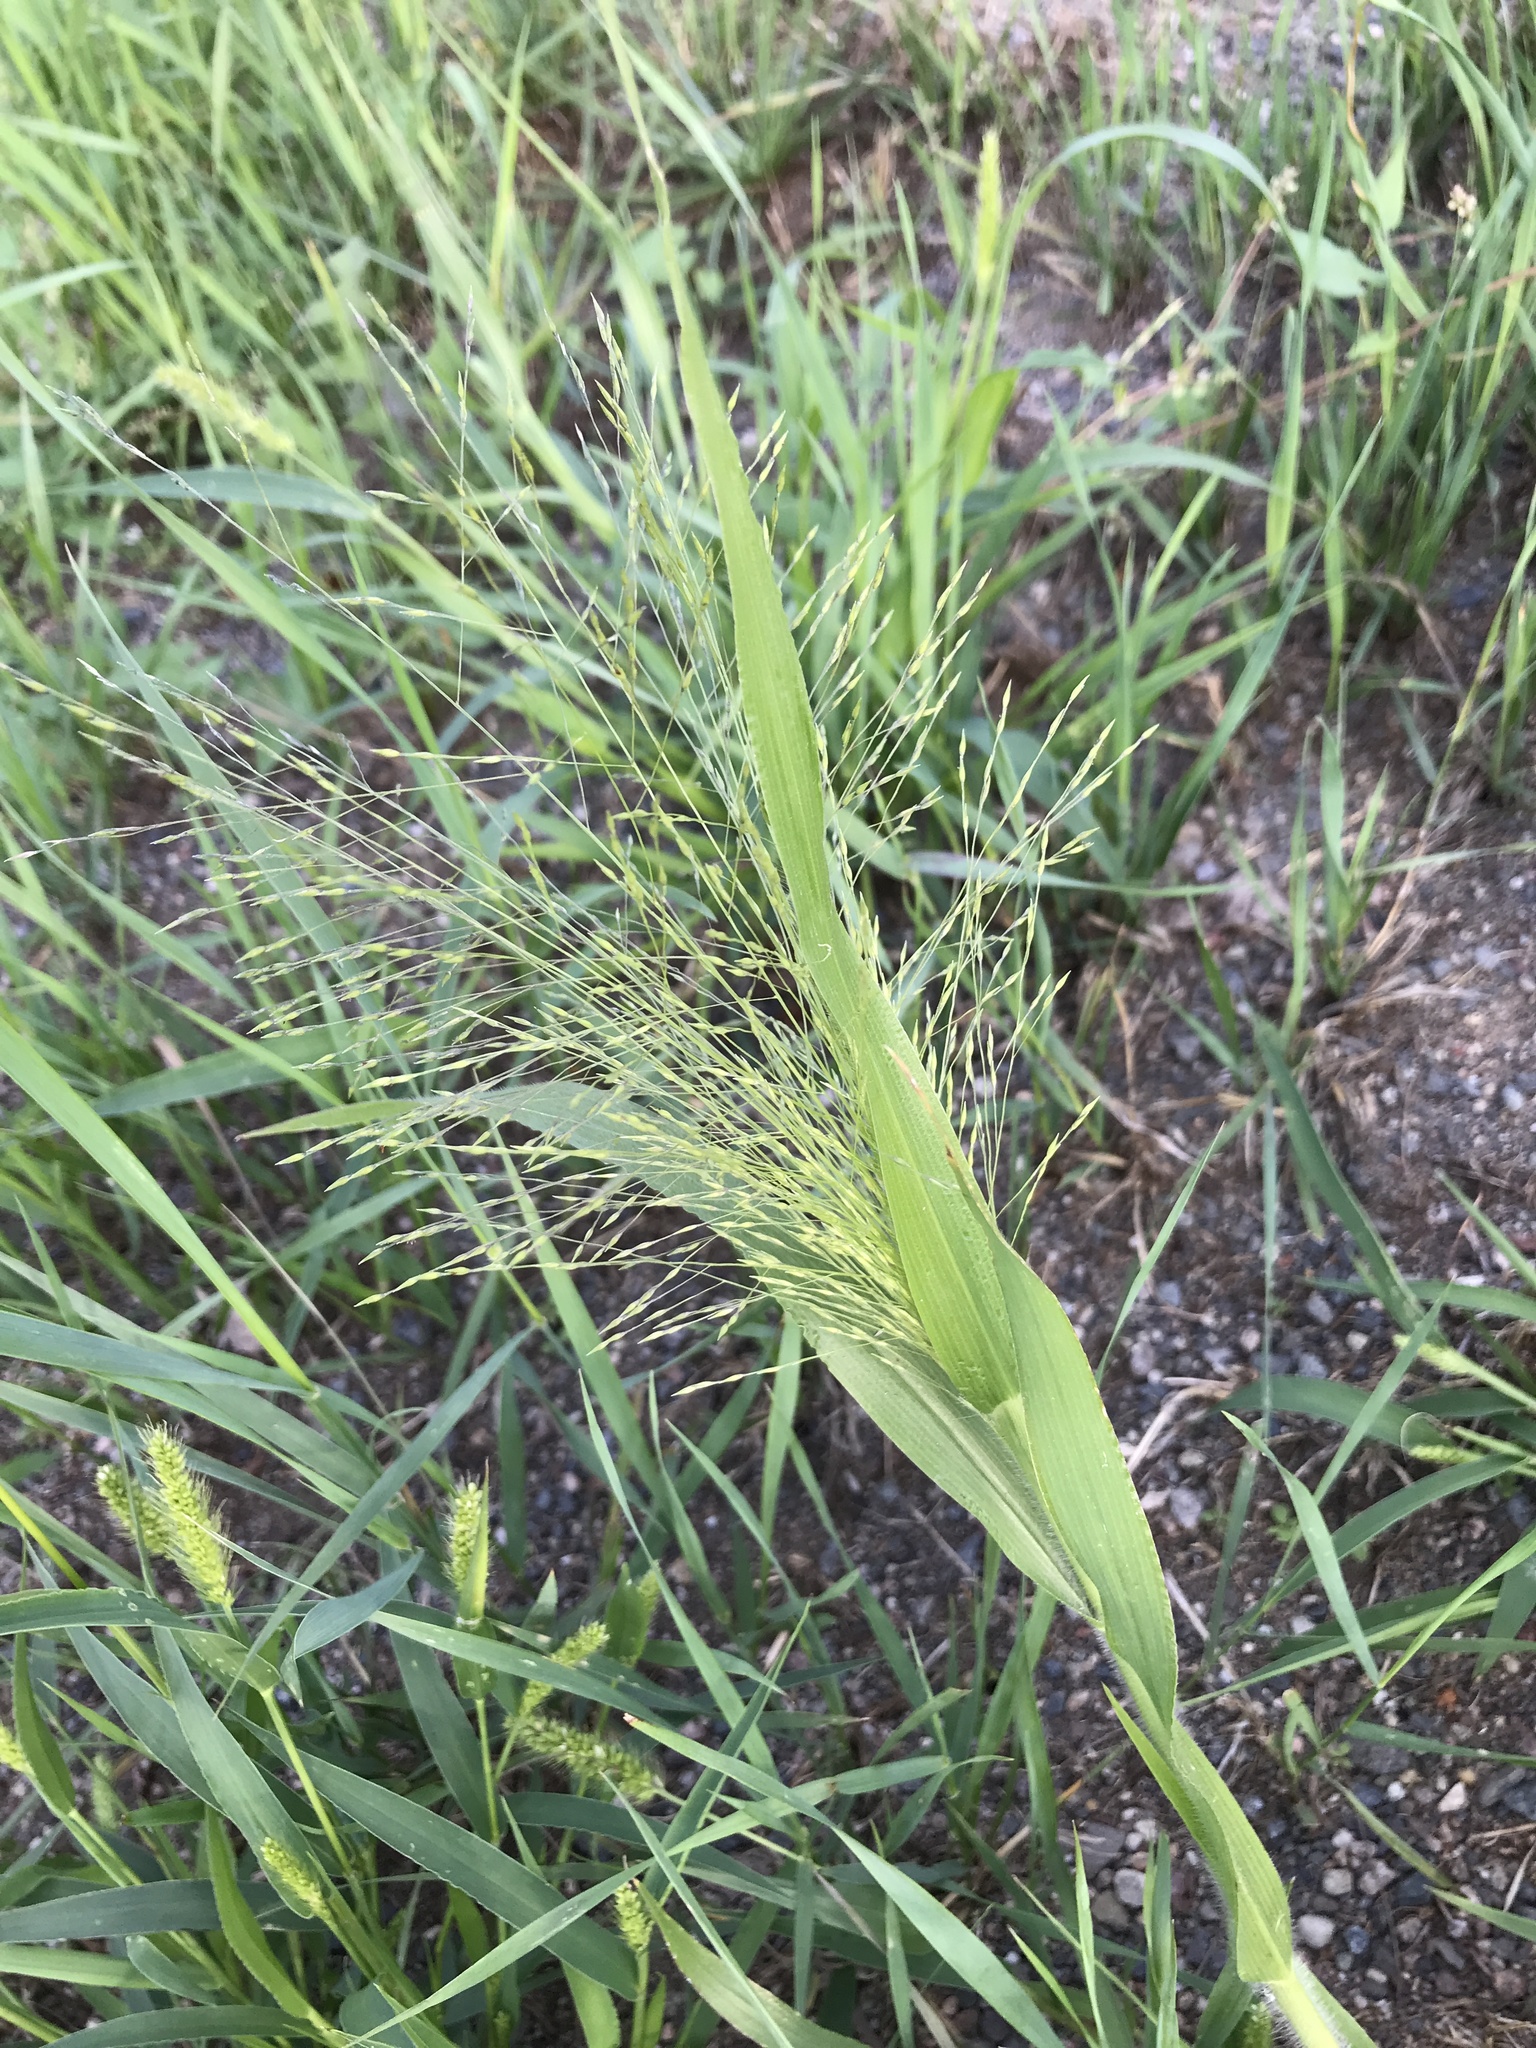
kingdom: Plantae
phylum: Tracheophyta
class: Liliopsida
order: Poales
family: Poaceae
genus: Panicum
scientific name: Panicum capillare
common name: Witch-grass
